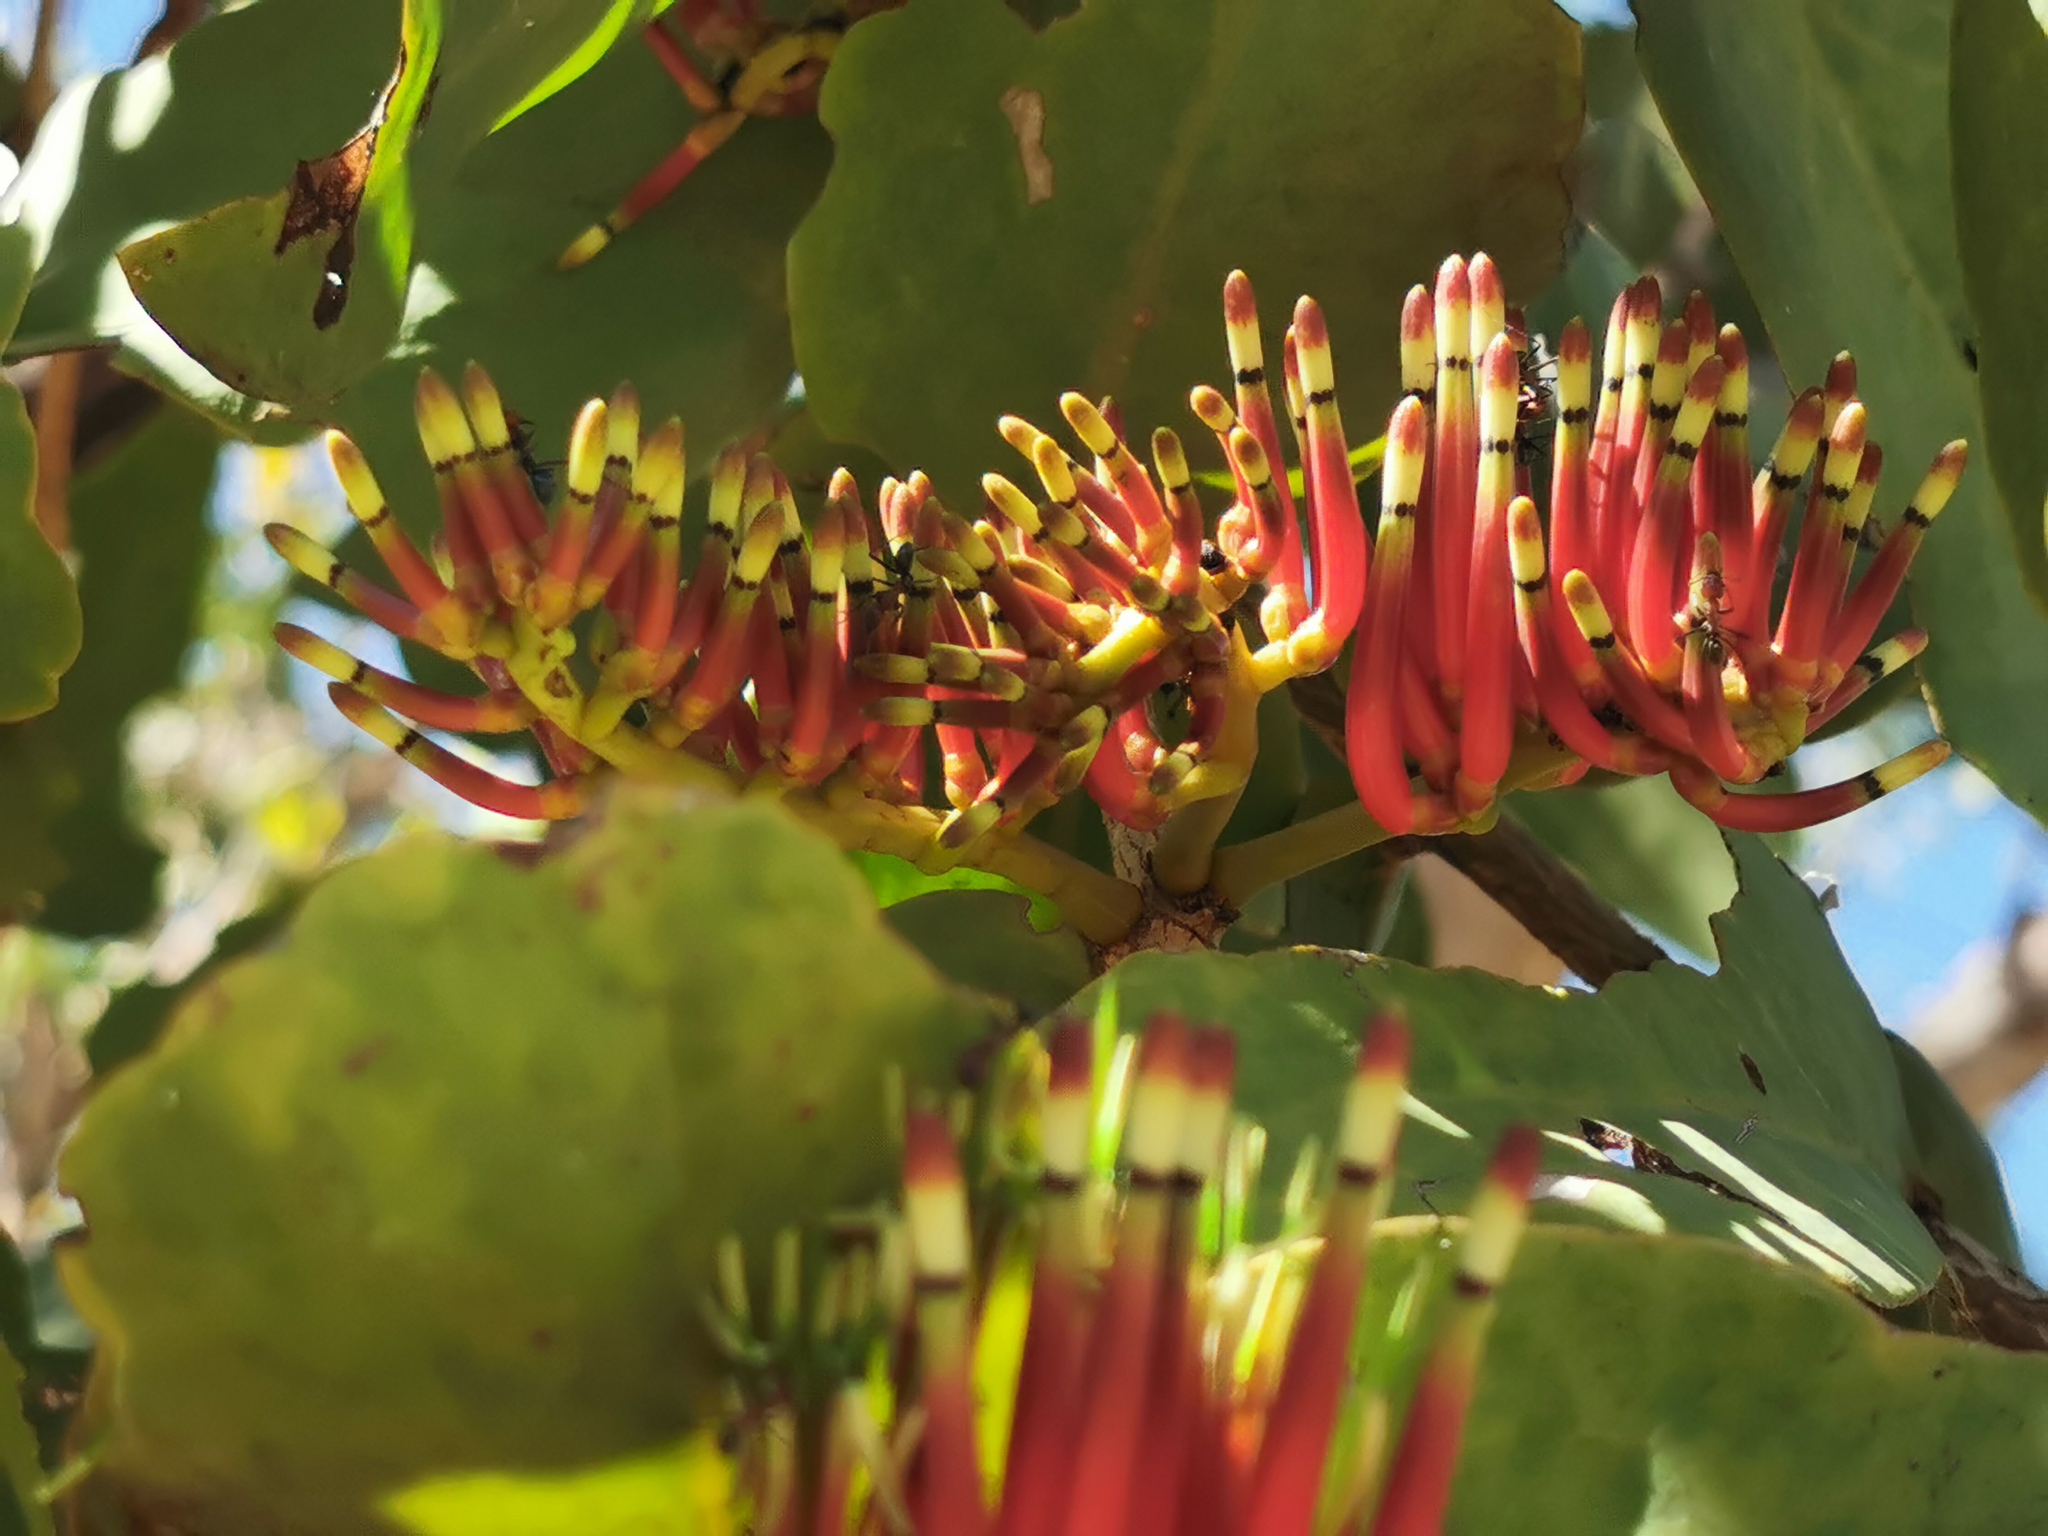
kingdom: Plantae
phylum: Tracheophyta
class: Magnoliopsida
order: Santalales
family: Loranthaceae
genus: Decaisnina
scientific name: Decaisnina signata
